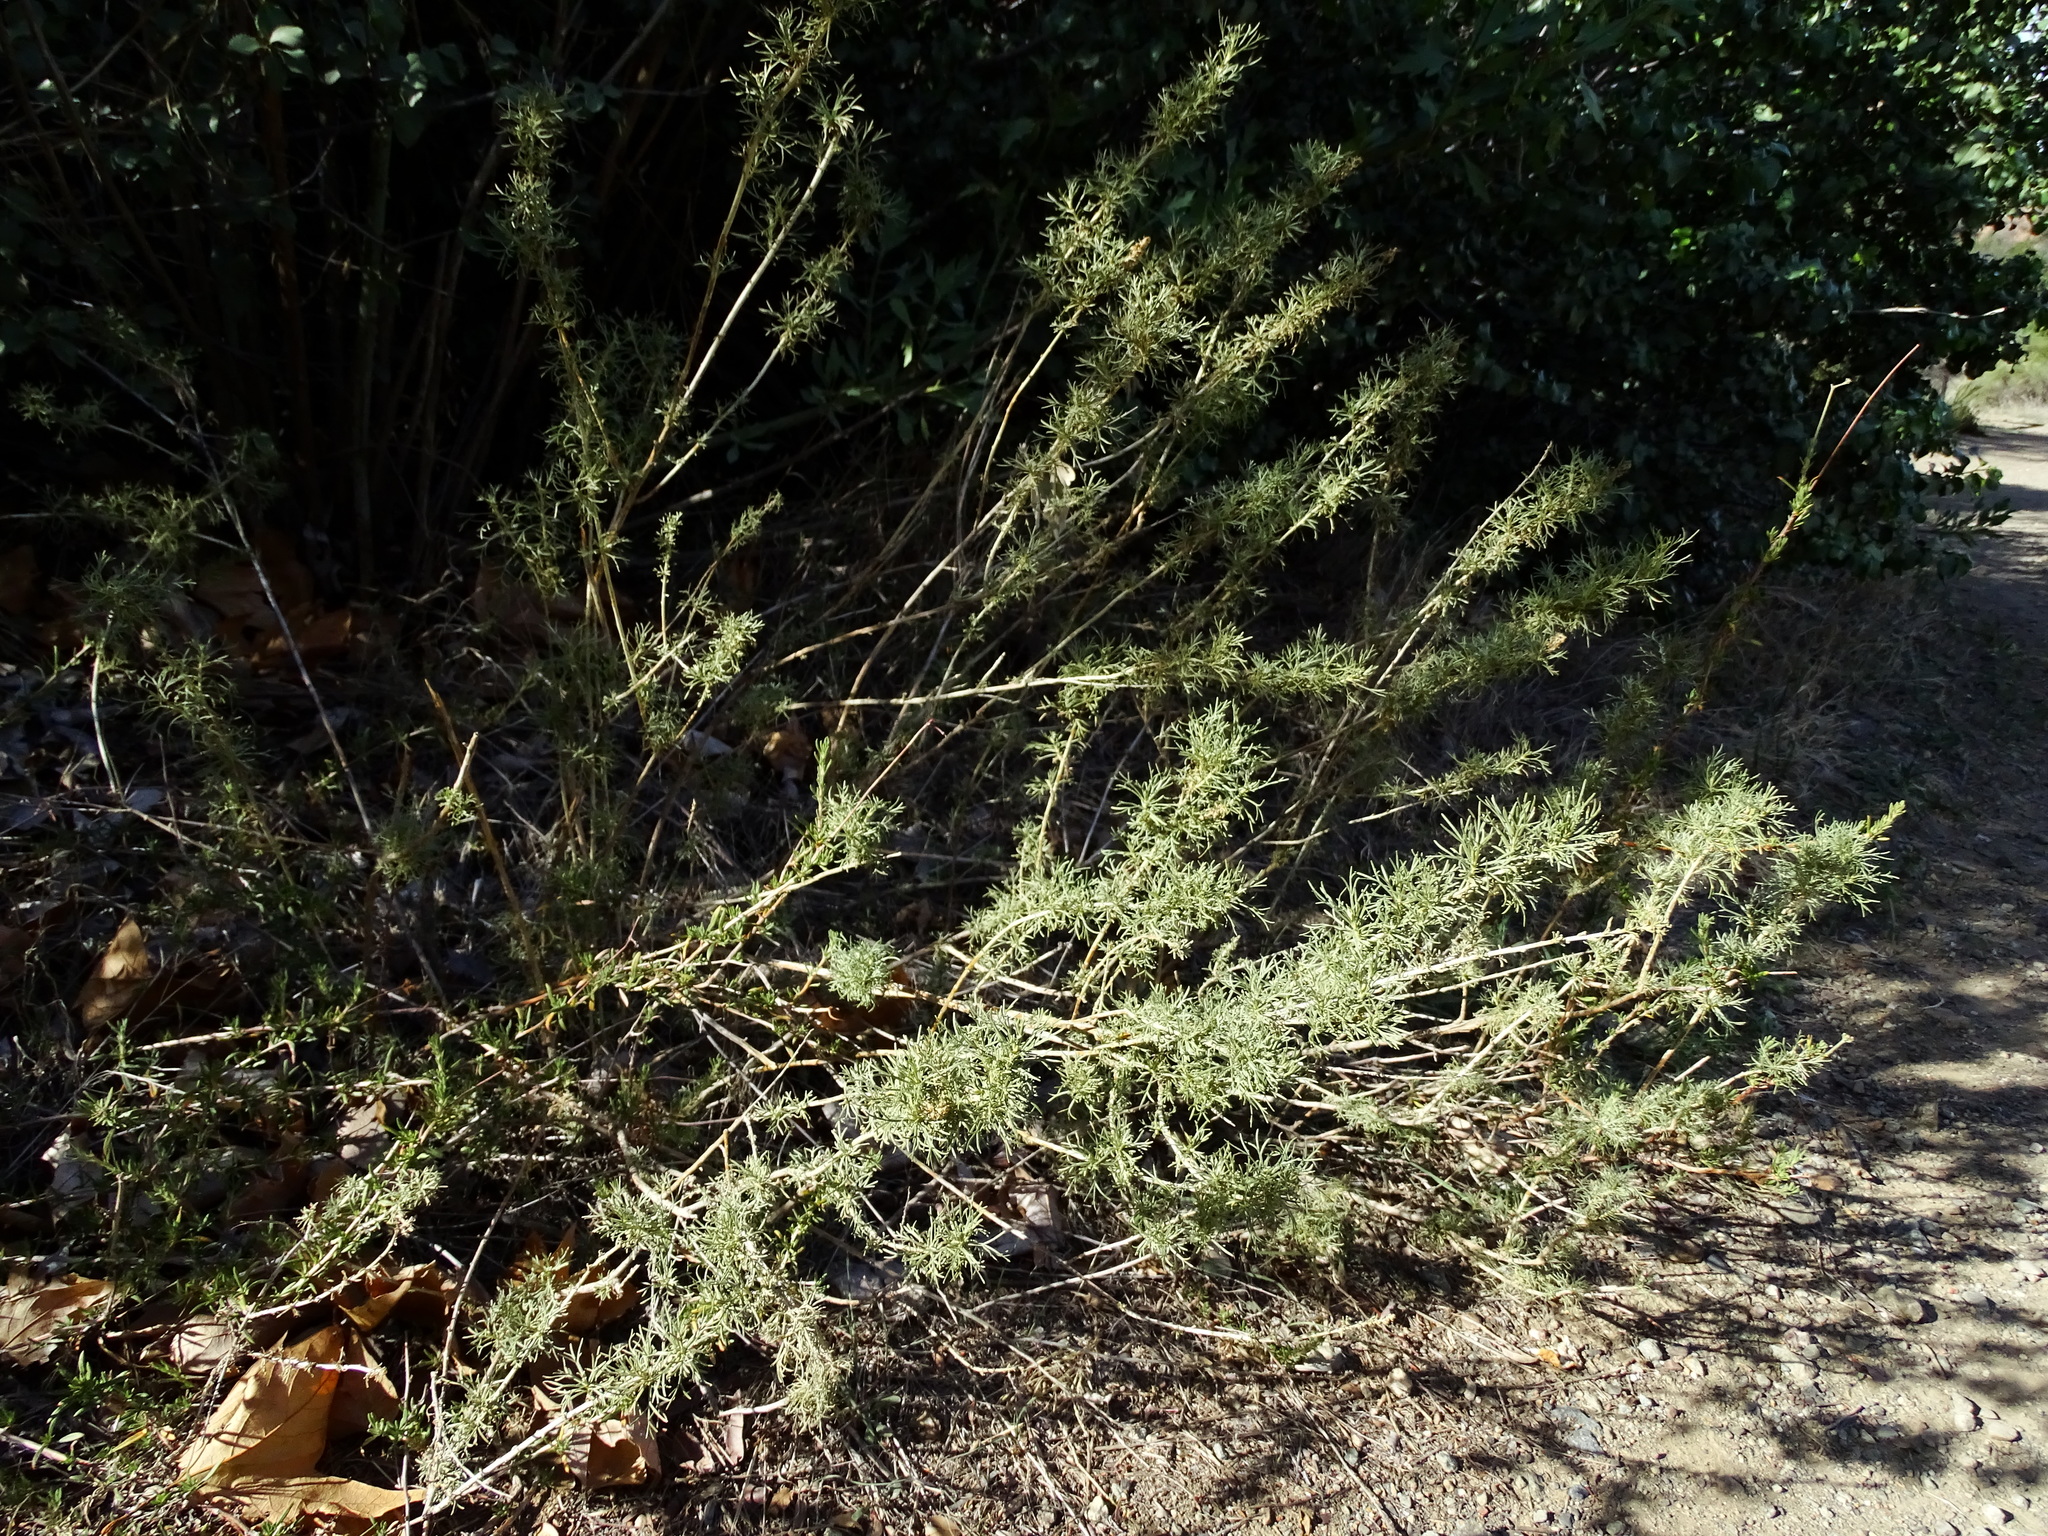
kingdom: Plantae
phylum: Tracheophyta
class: Magnoliopsida
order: Asterales
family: Asteraceae
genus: Artemisia
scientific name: Artemisia californica
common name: California sagebrush
